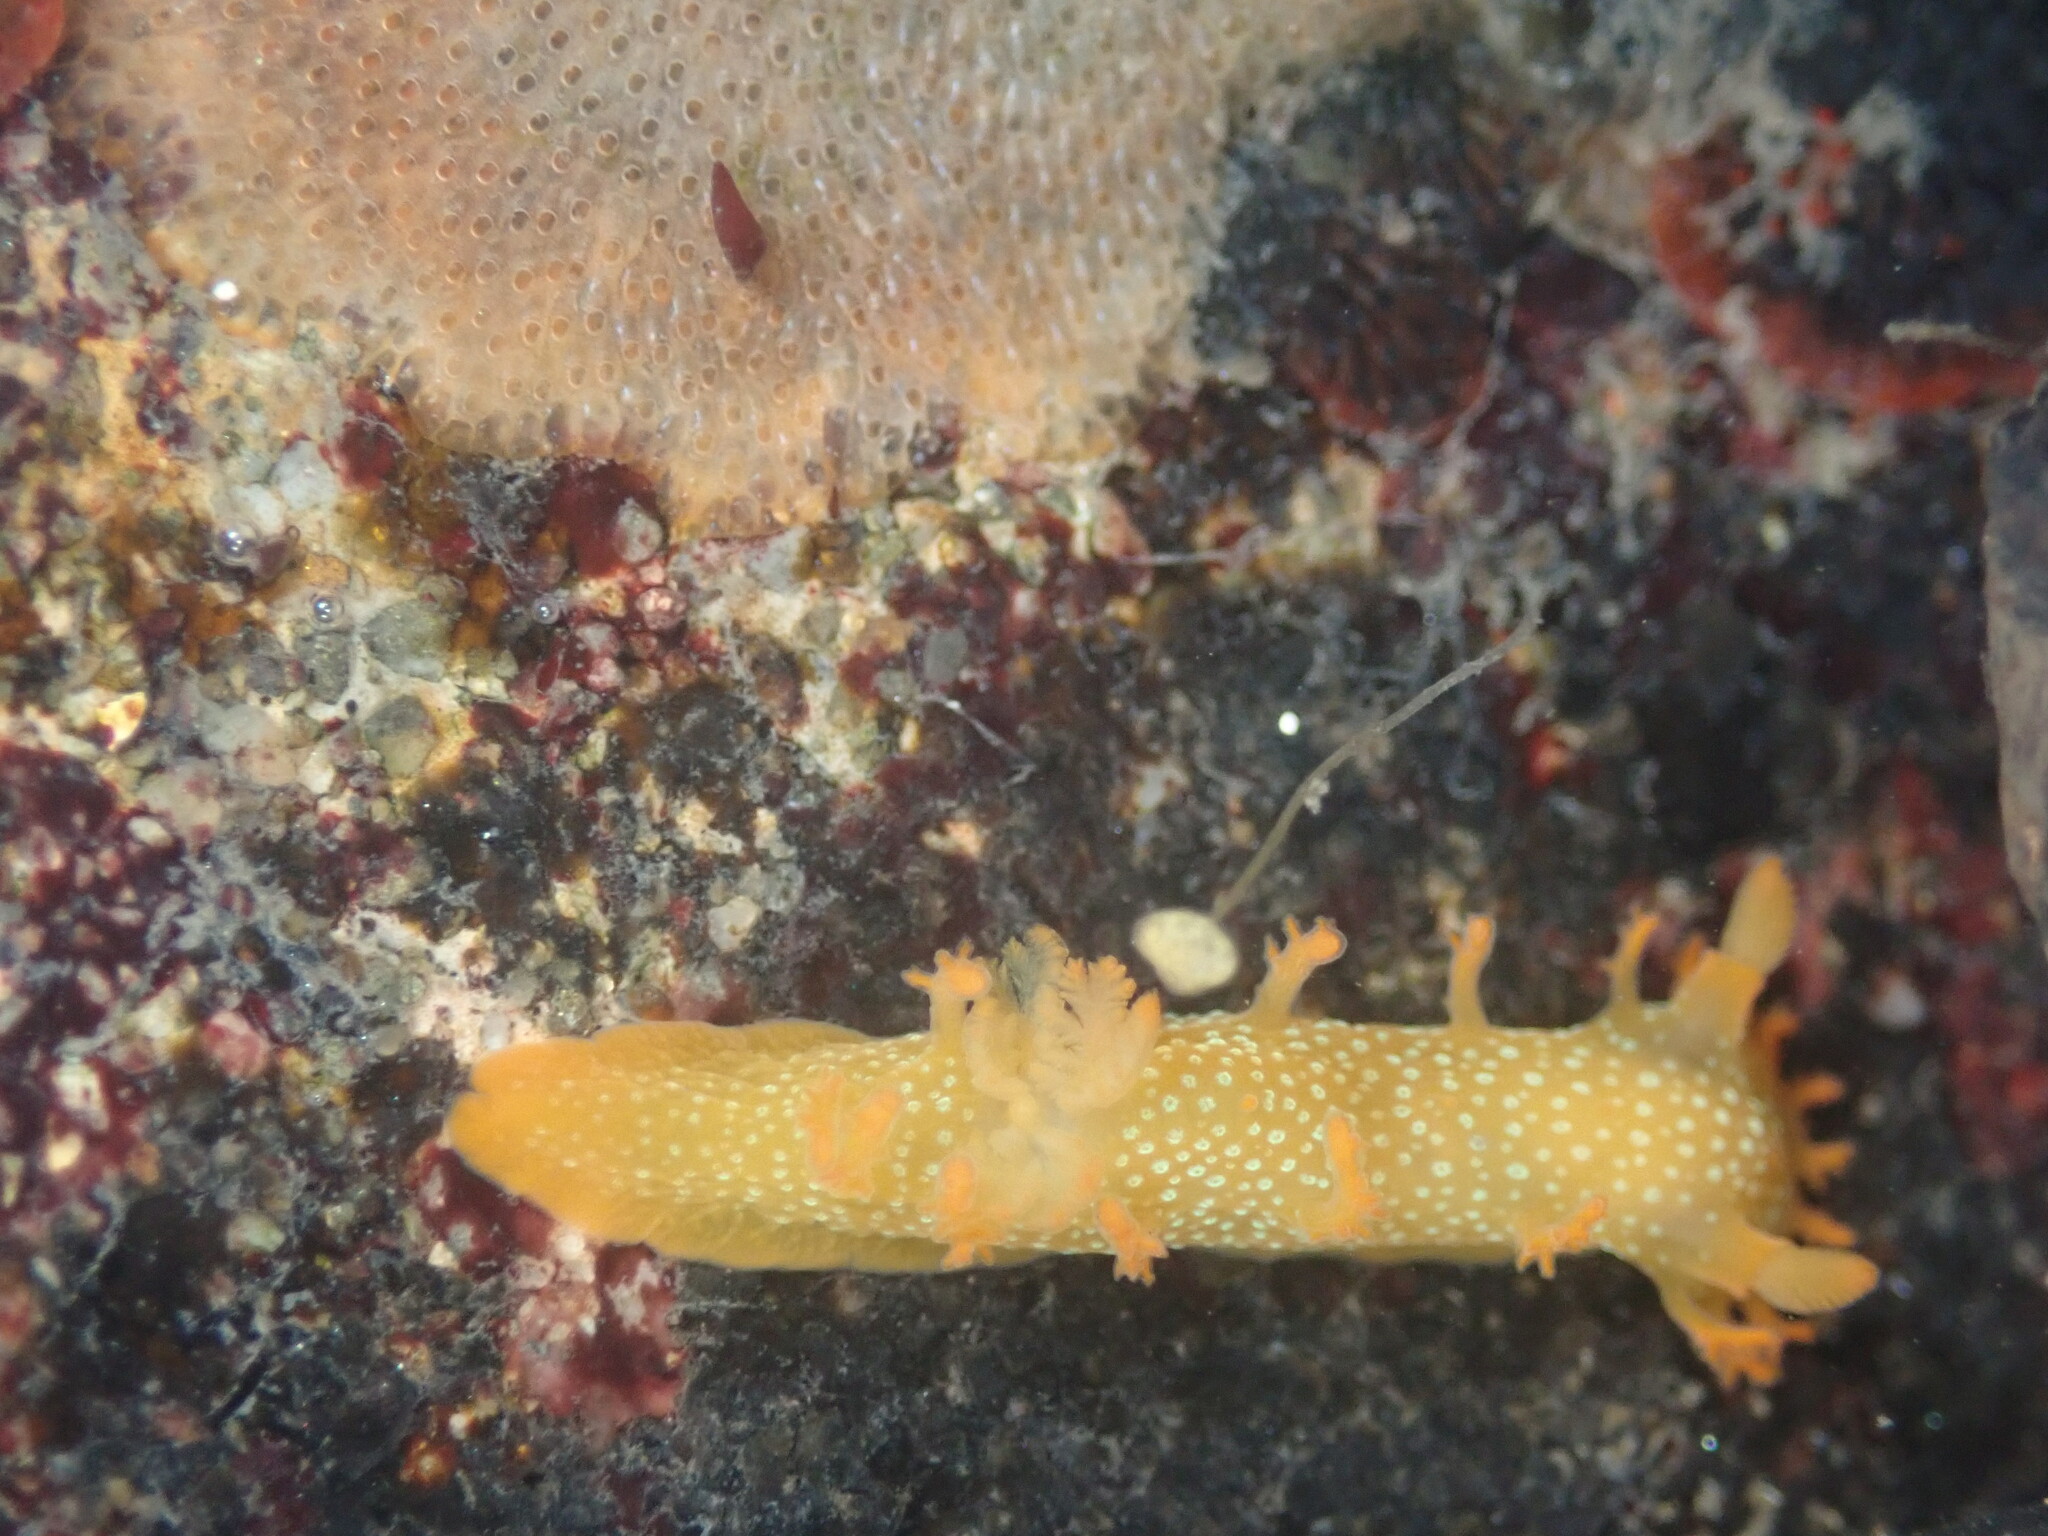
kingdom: Animalia
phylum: Mollusca
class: Gastropoda
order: Nudibranchia
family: Polyceridae
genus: Triopha
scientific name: Triopha maculata
